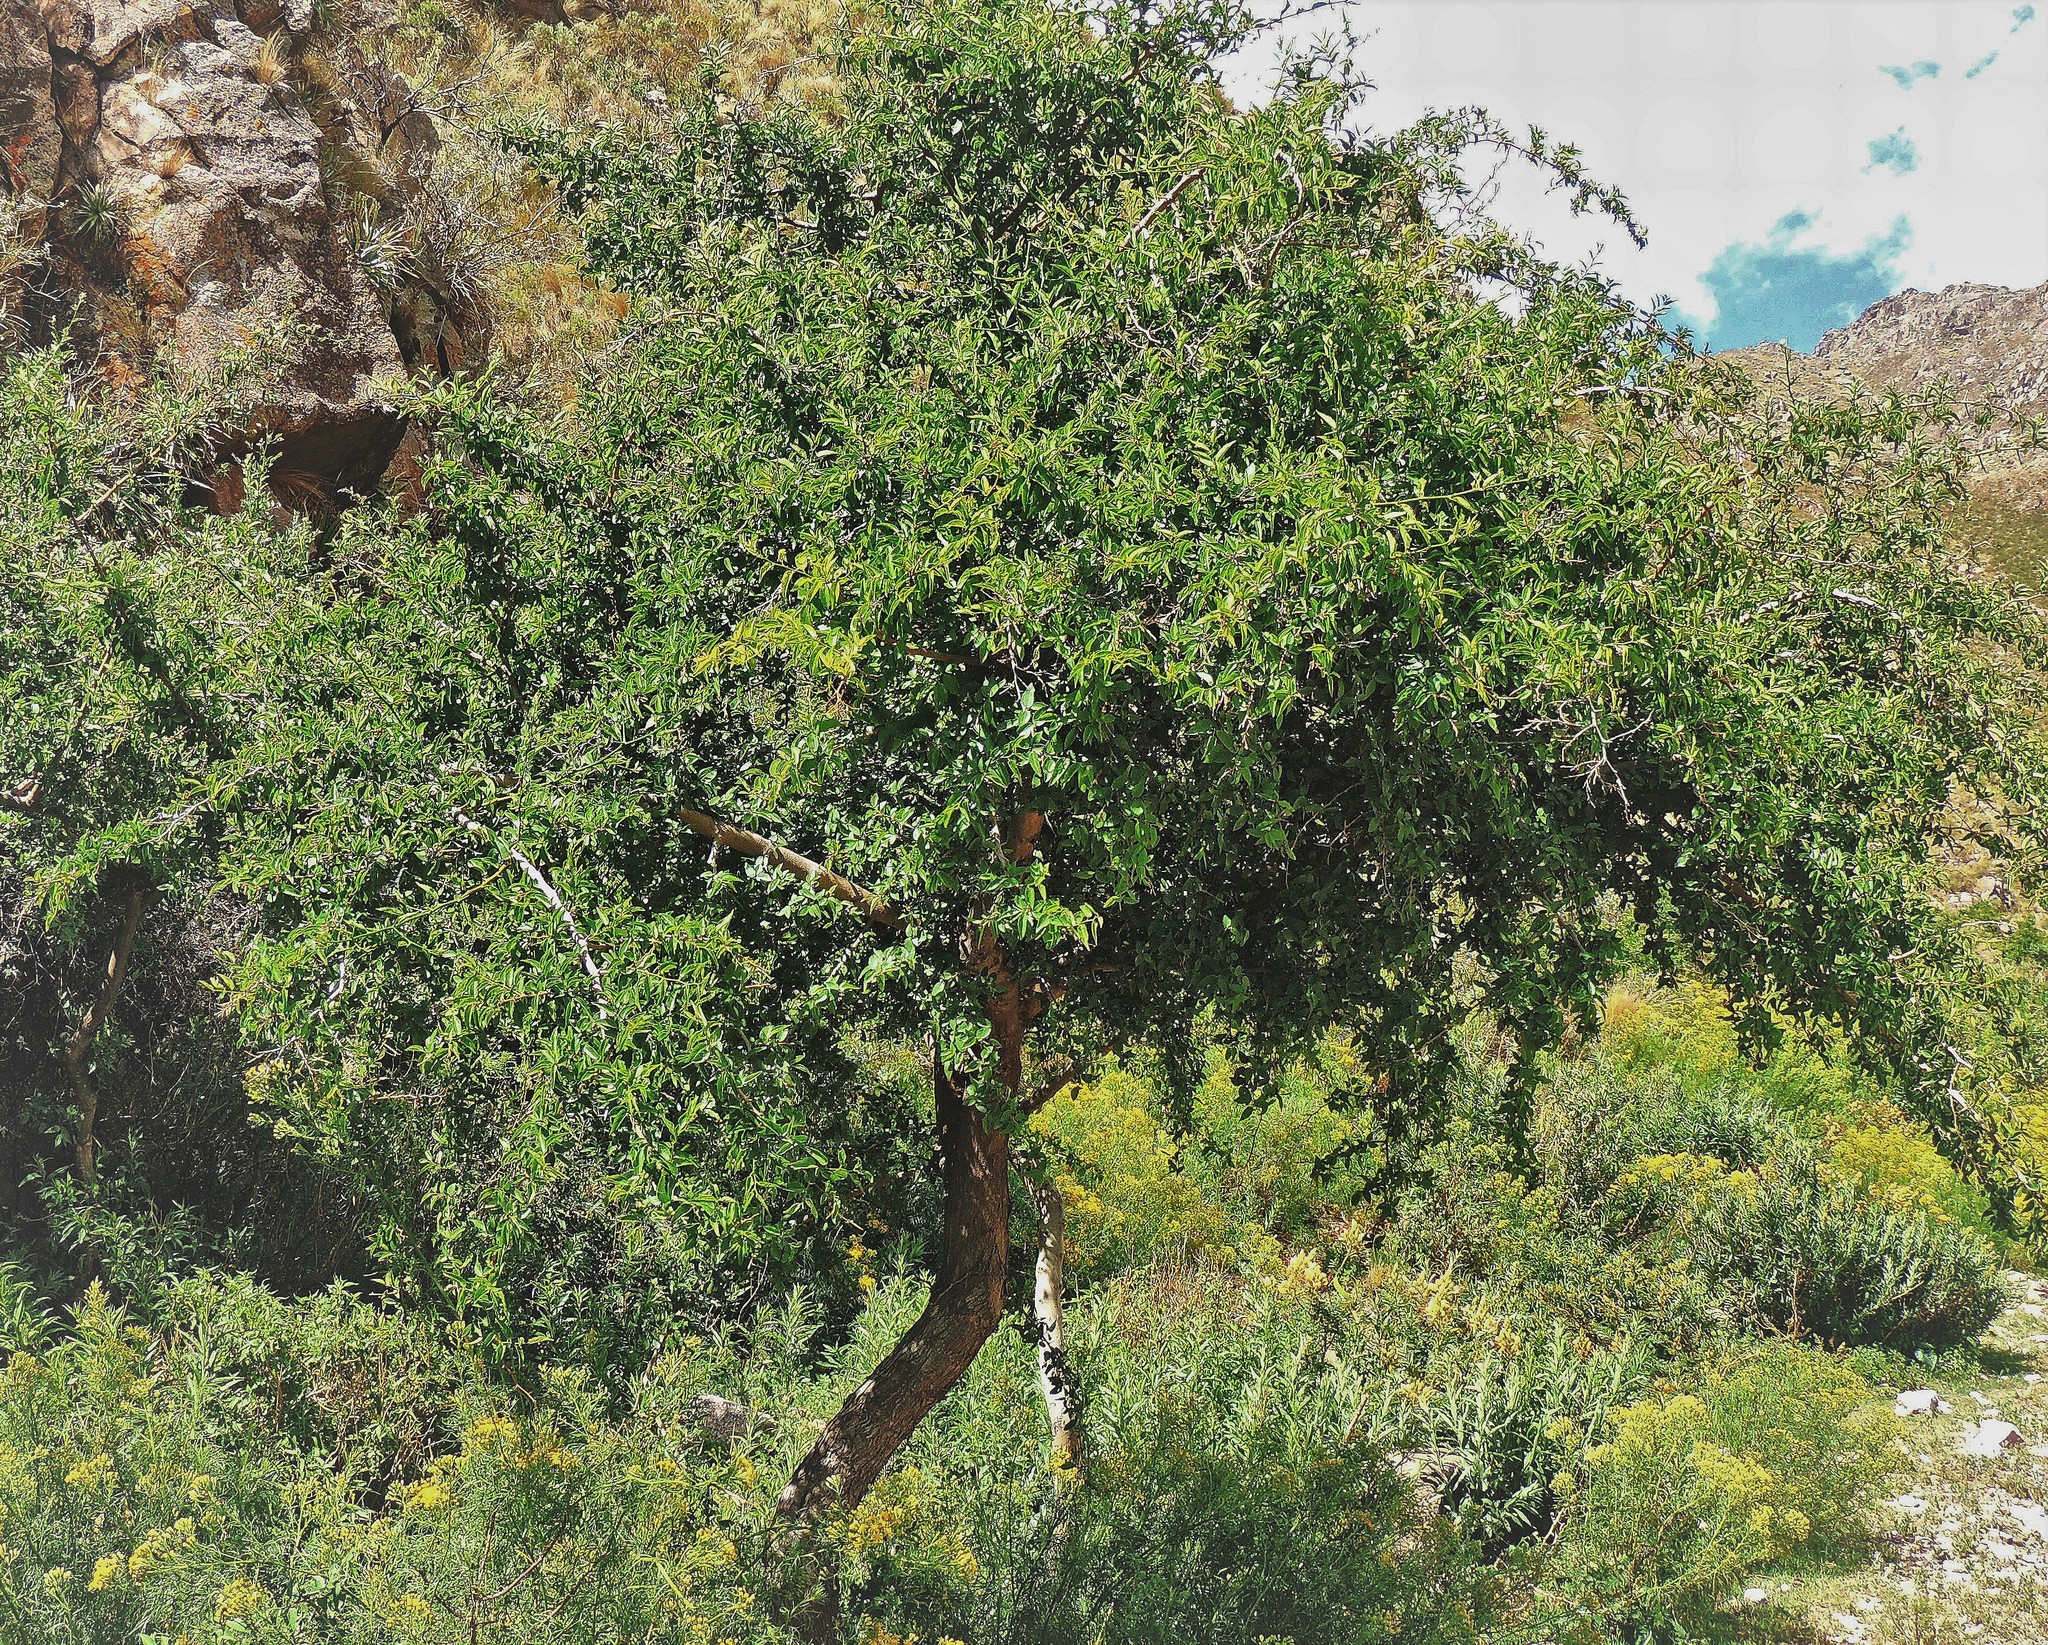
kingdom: Plantae
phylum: Tracheophyta
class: Magnoliopsida
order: Rosales
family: Cannabaceae
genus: Celtis
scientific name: Celtis tala
